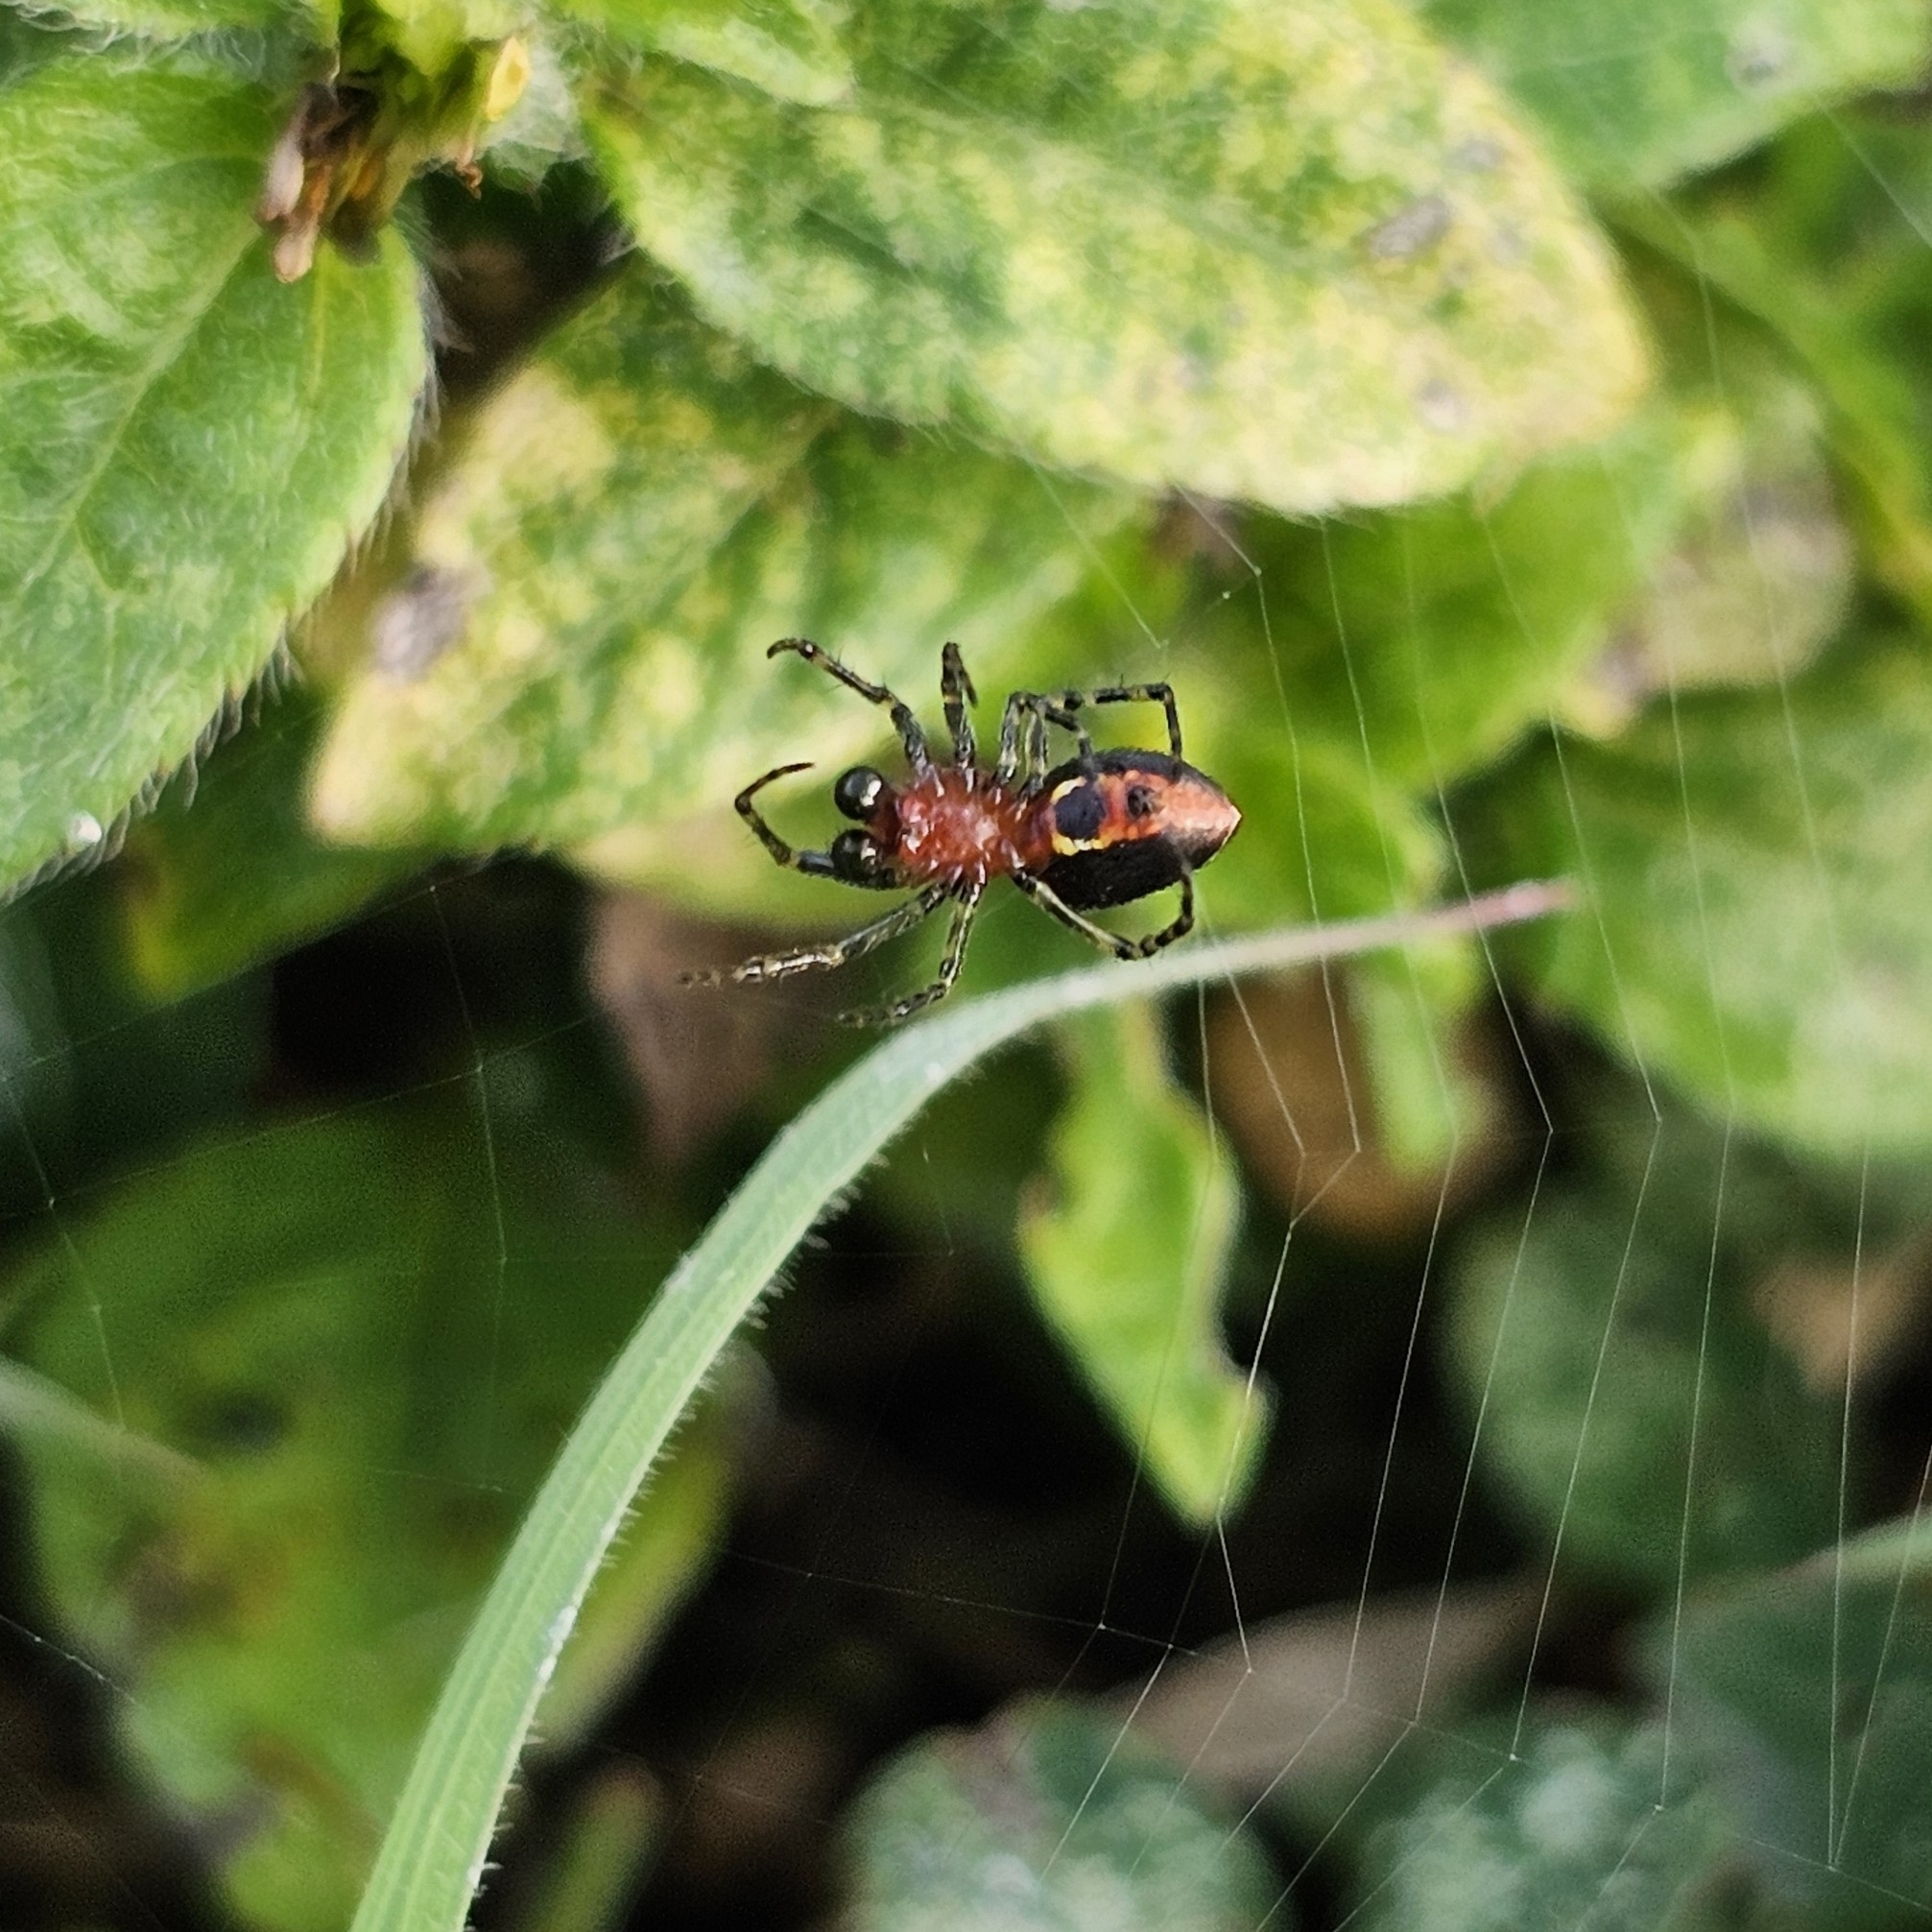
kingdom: Animalia
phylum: Arthropoda
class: Arachnida
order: Araneae
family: Araneidae
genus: Alpaida
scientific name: Alpaida leucogramma
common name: Orb weavers
